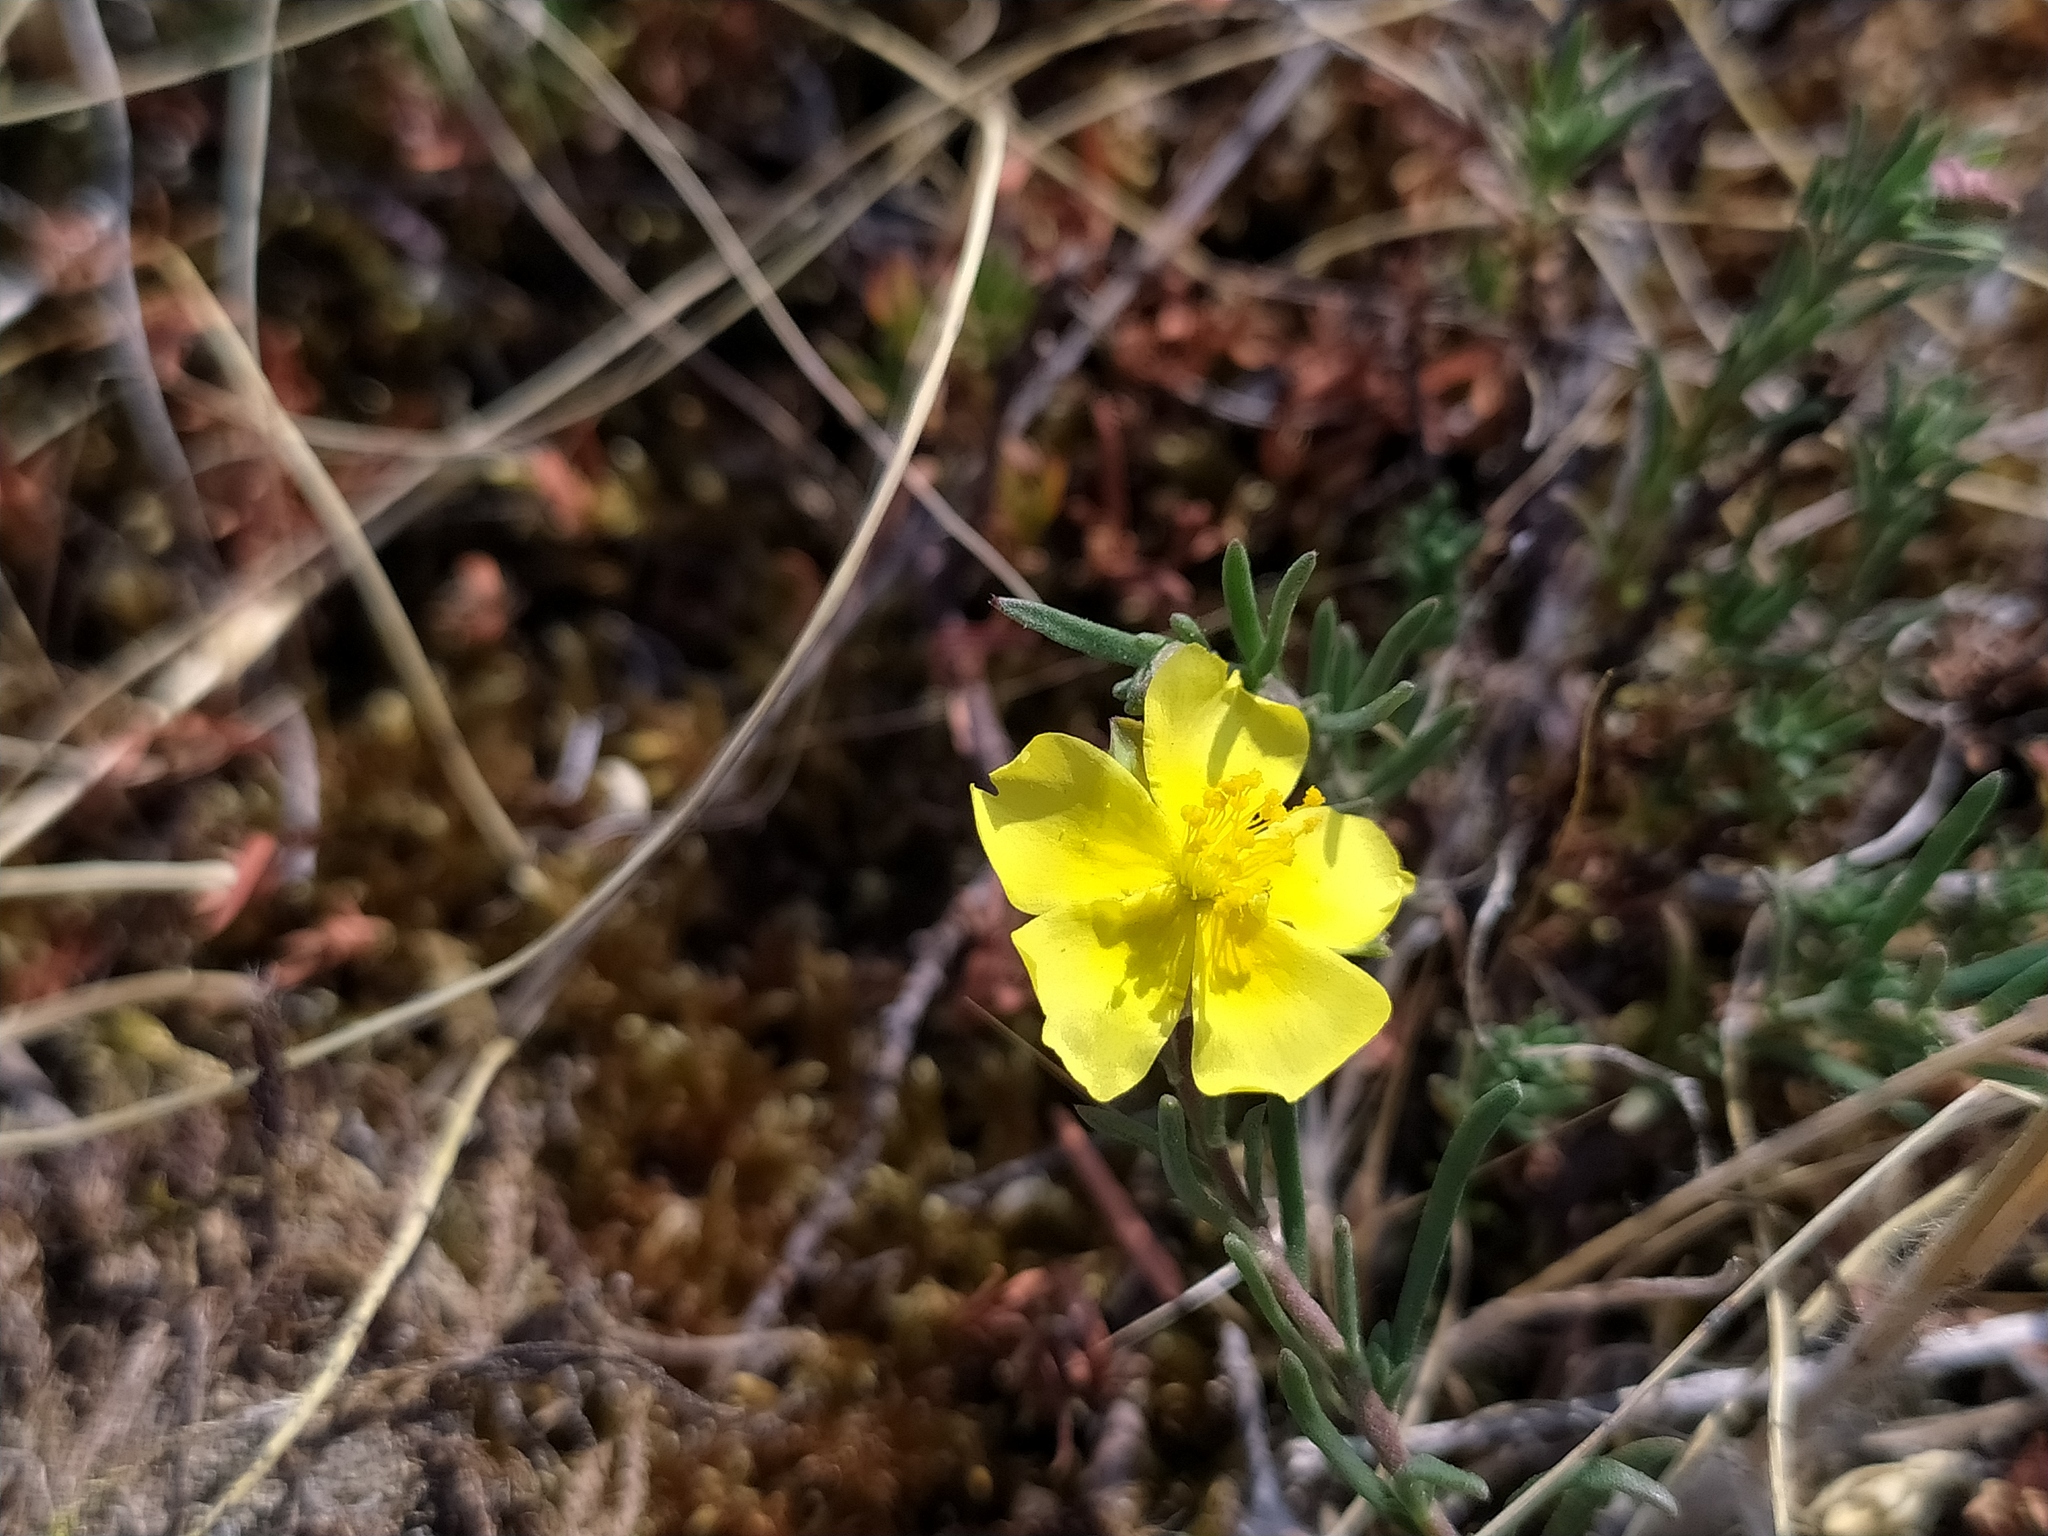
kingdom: Plantae
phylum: Tracheophyta
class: Magnoliopsida
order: Malvales
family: Cistaceae
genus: Fumana
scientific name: Fumana procumbens
